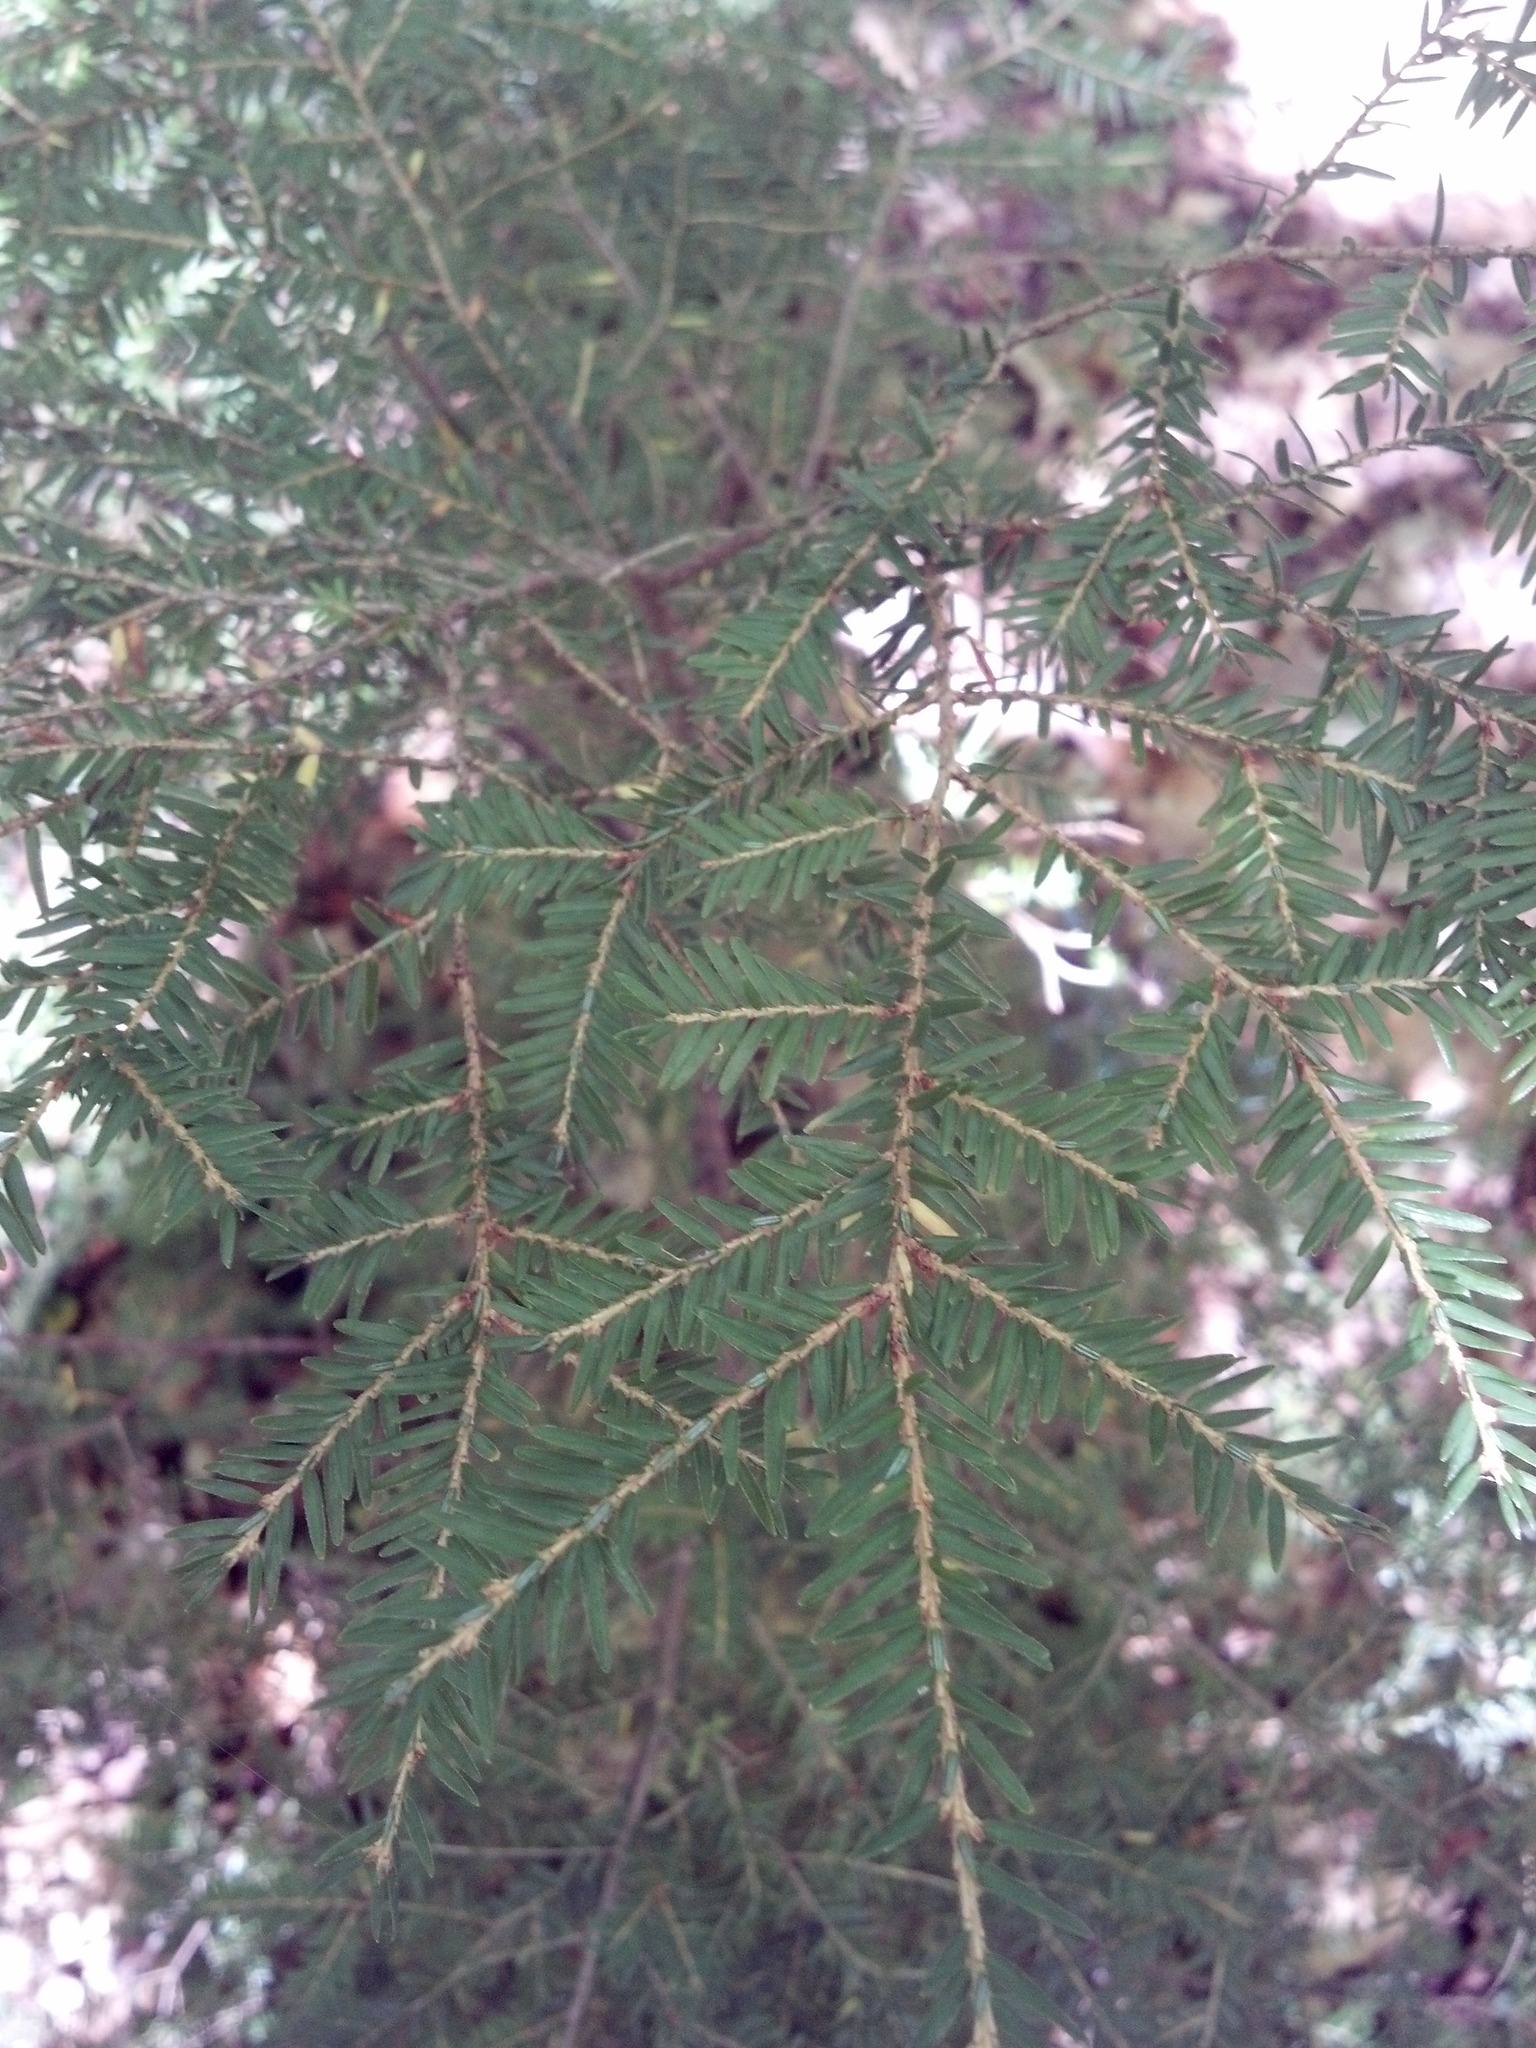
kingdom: Plantae
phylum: Tracheophyta
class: Pinopsida
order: Pinales
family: Pinaceae
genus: Tsuga
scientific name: Tsuga canadensis
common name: Eastern hemlock
